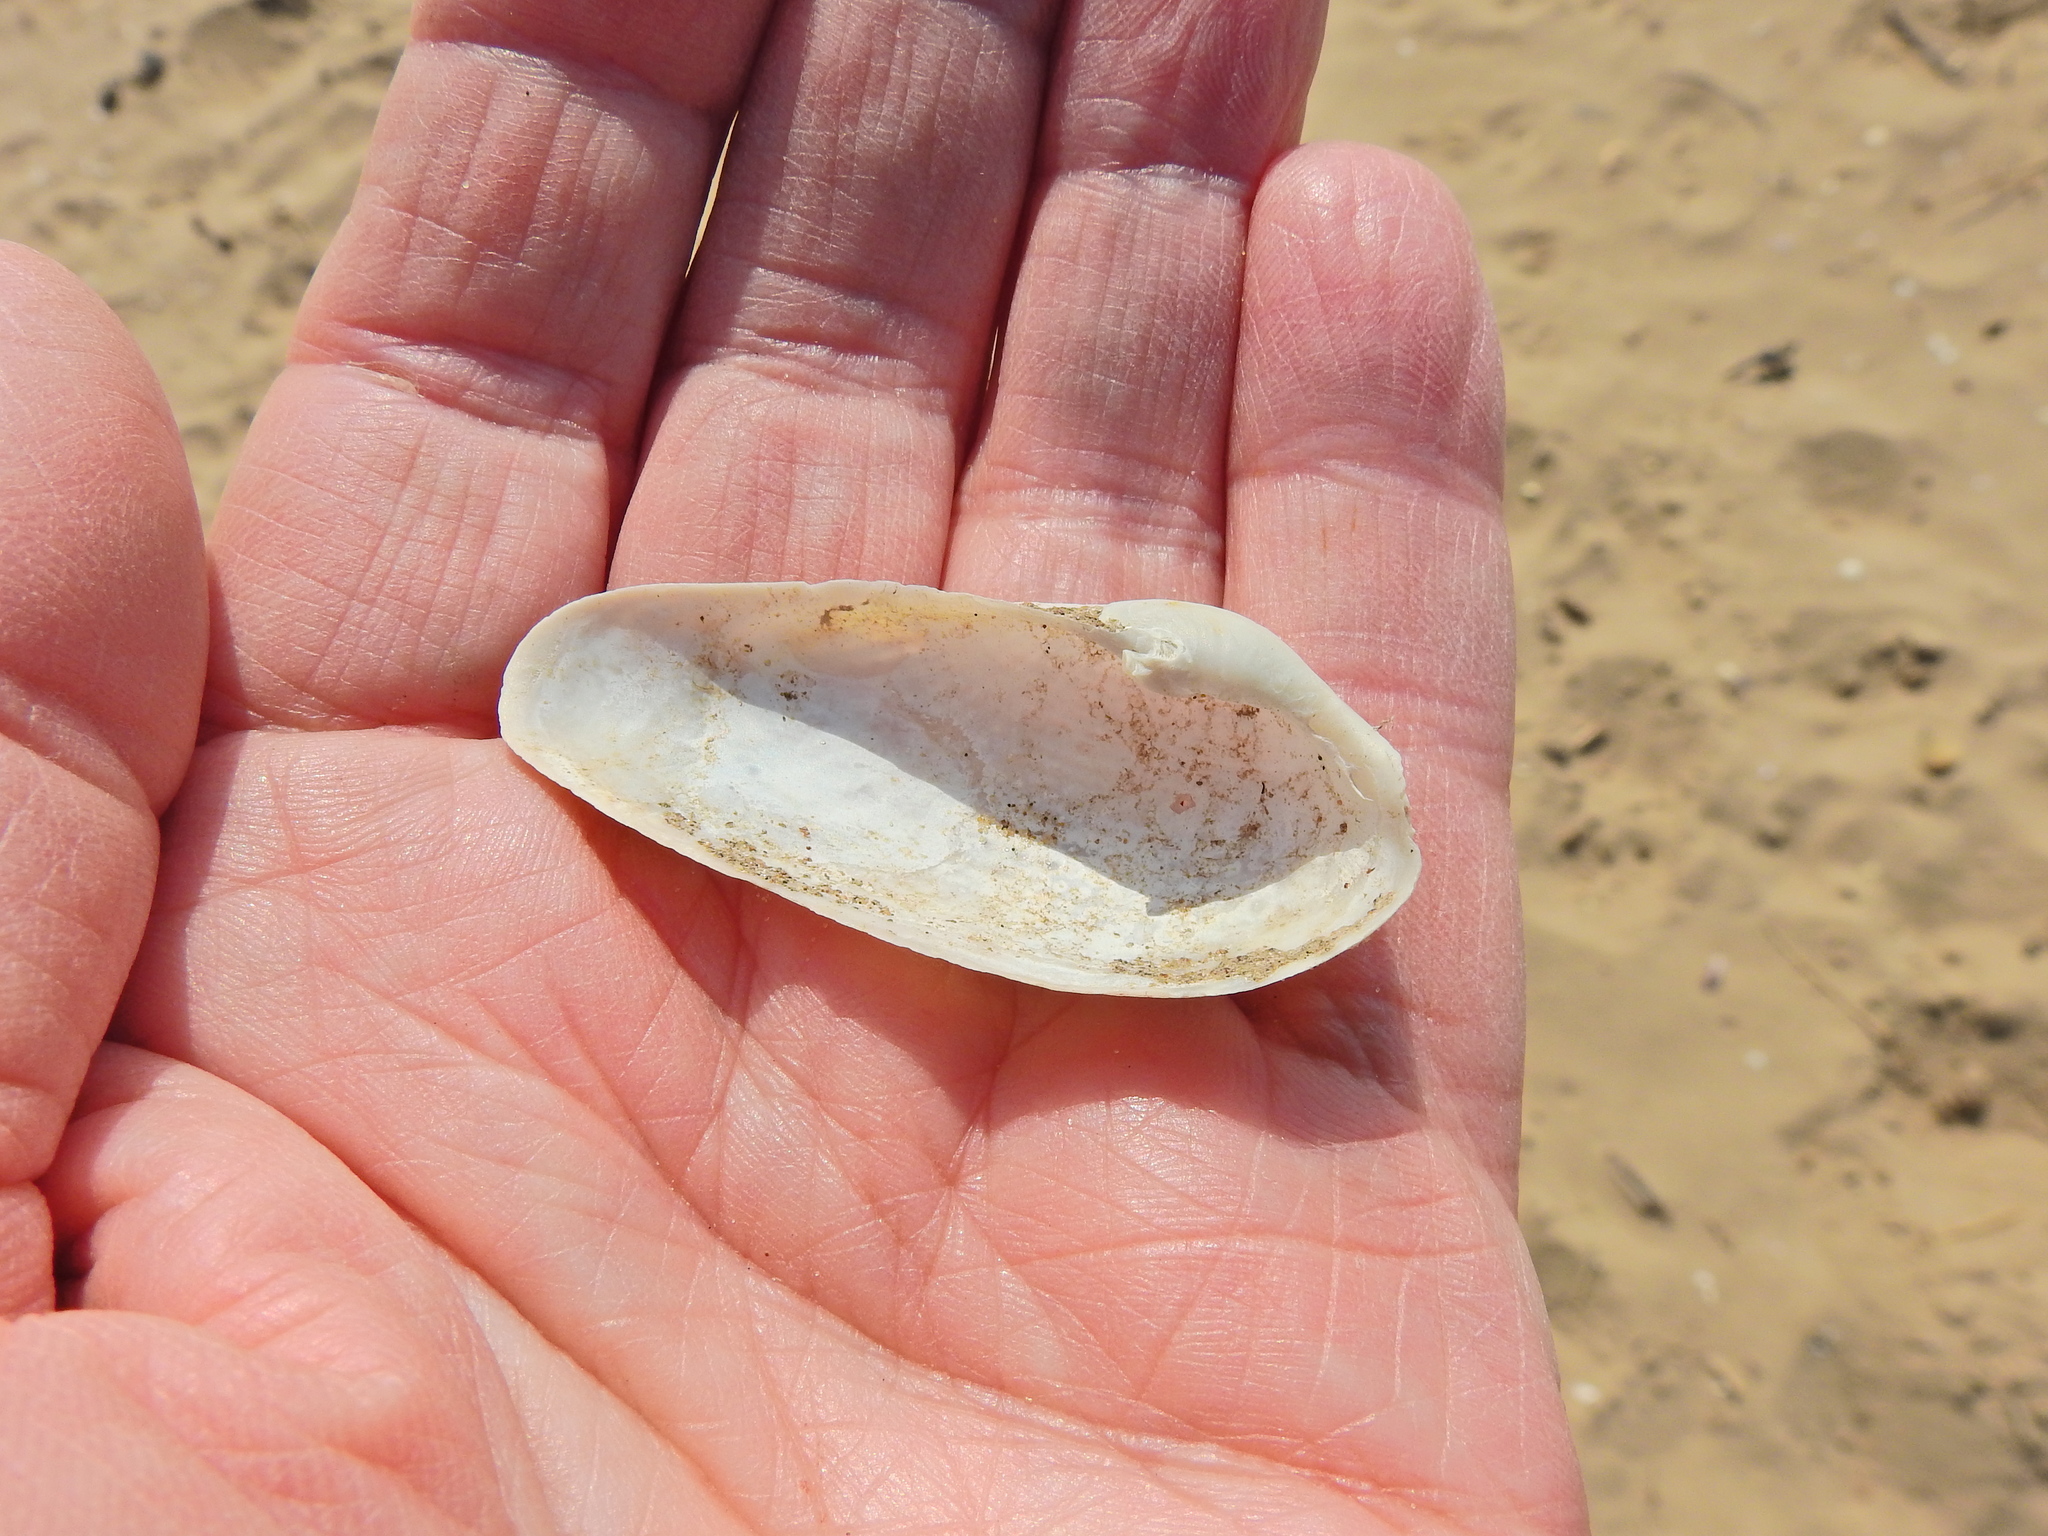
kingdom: Animalia
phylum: Mollusca
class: Bivalvia
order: Myida
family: Pholadidae
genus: Barnea
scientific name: Barnea candida
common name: White piddock
